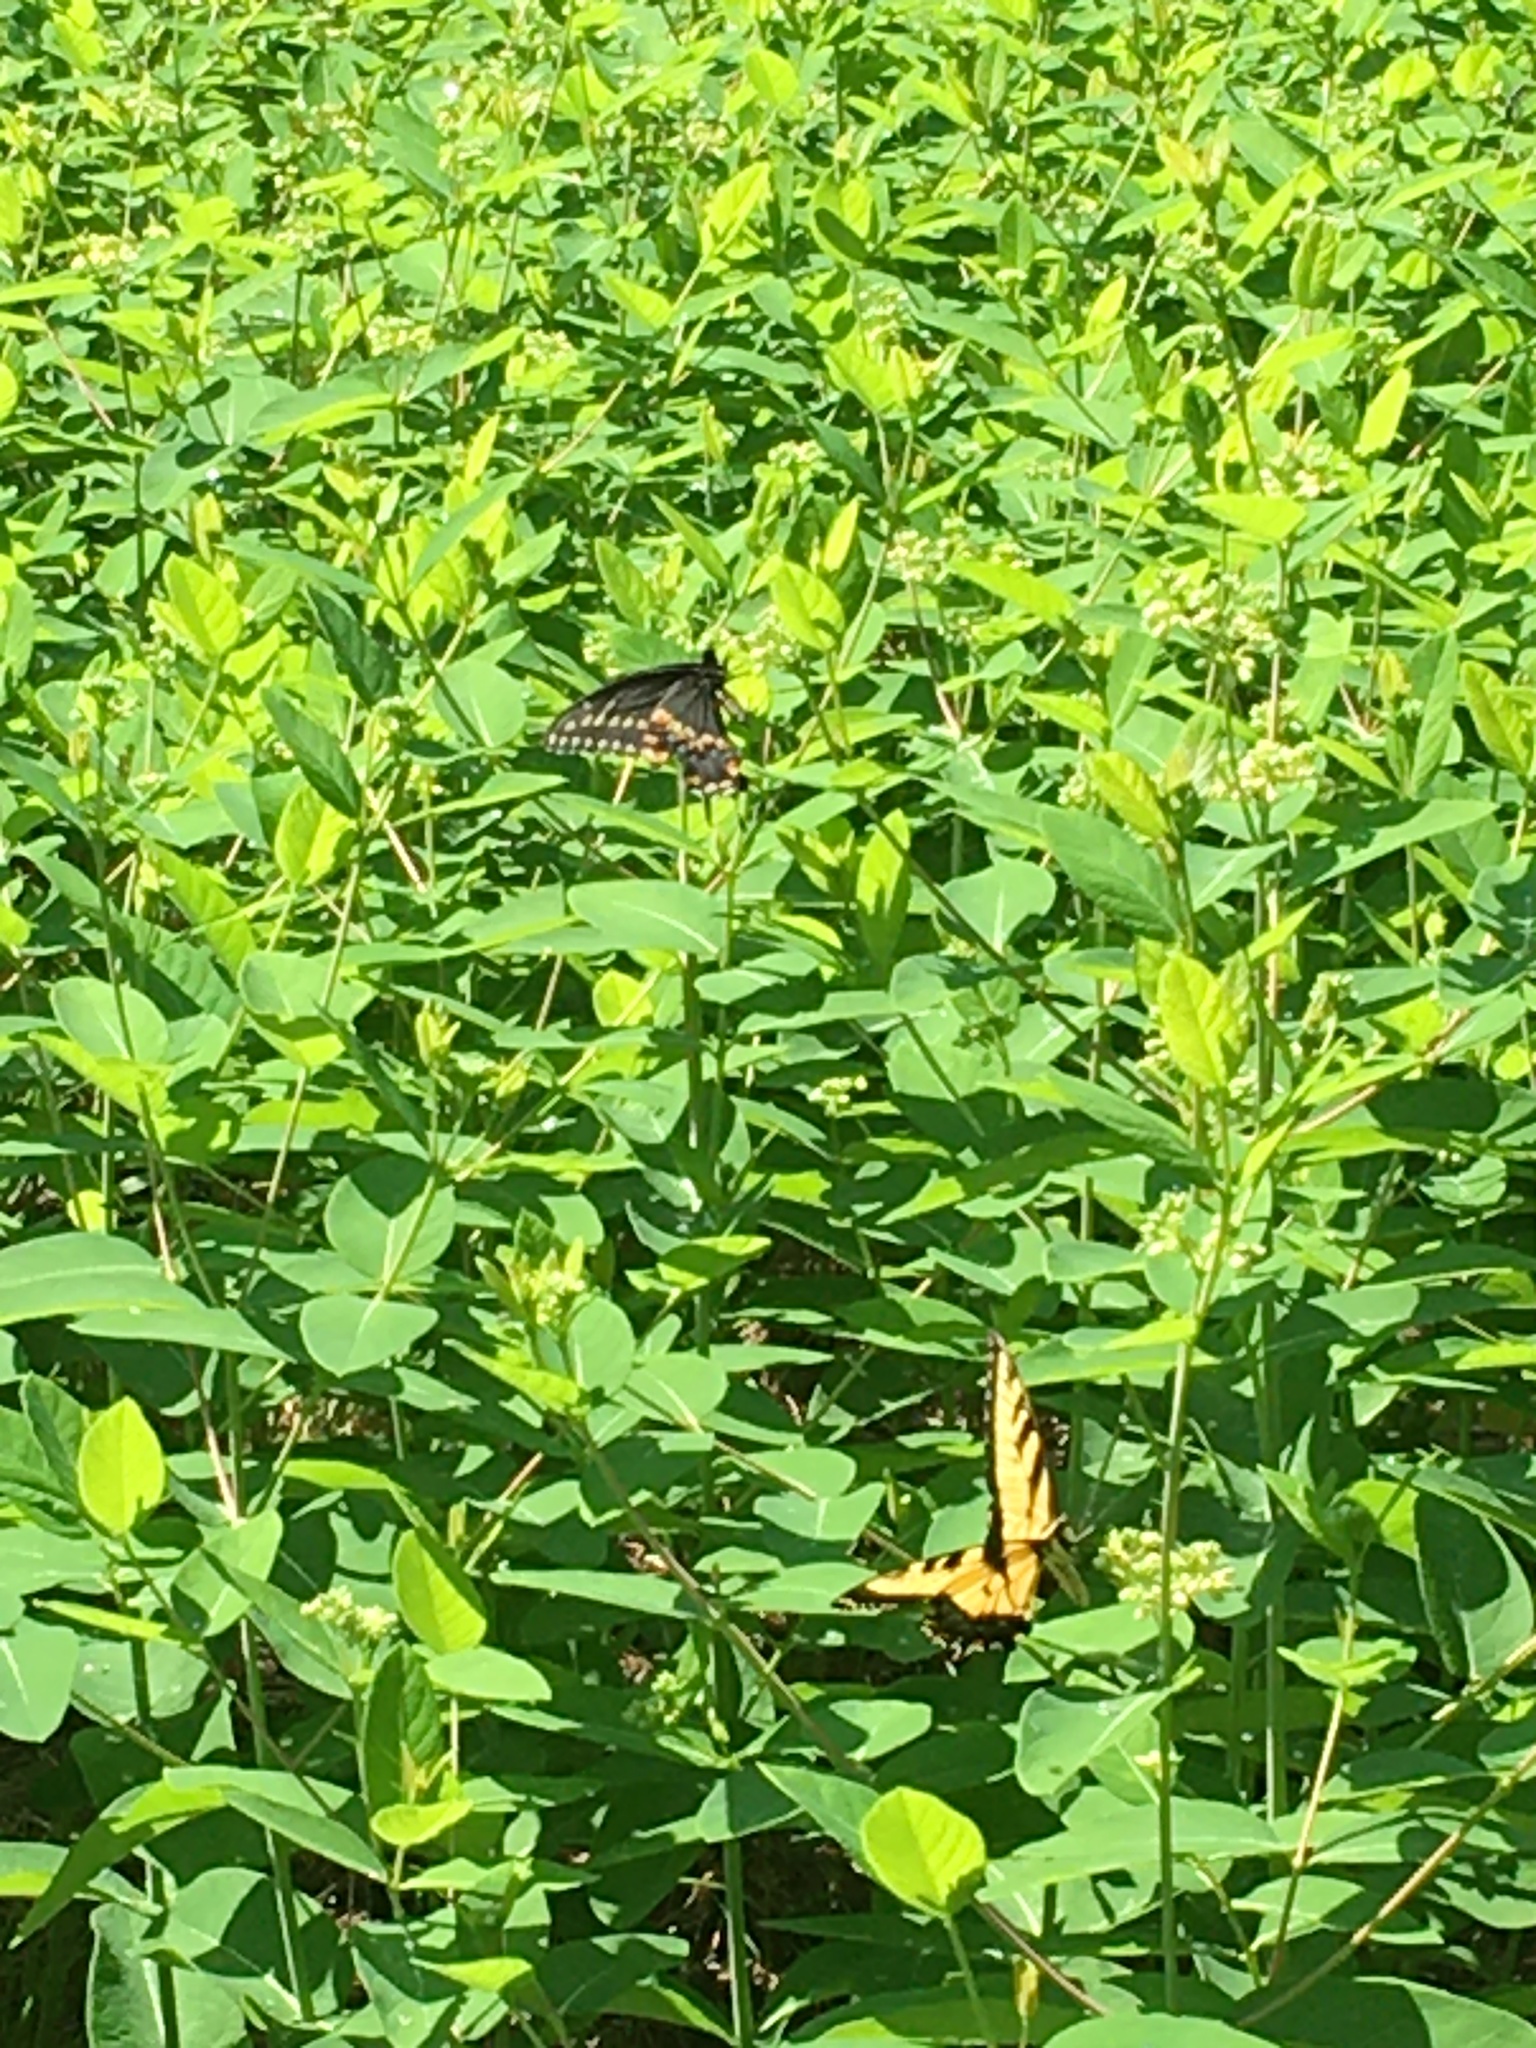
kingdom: Animalia
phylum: Arthropoda
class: Insecta
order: Lepidoptera
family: Papilionidae
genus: Papilio
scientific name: Papilio glaucus
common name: Tiger swallowtail
